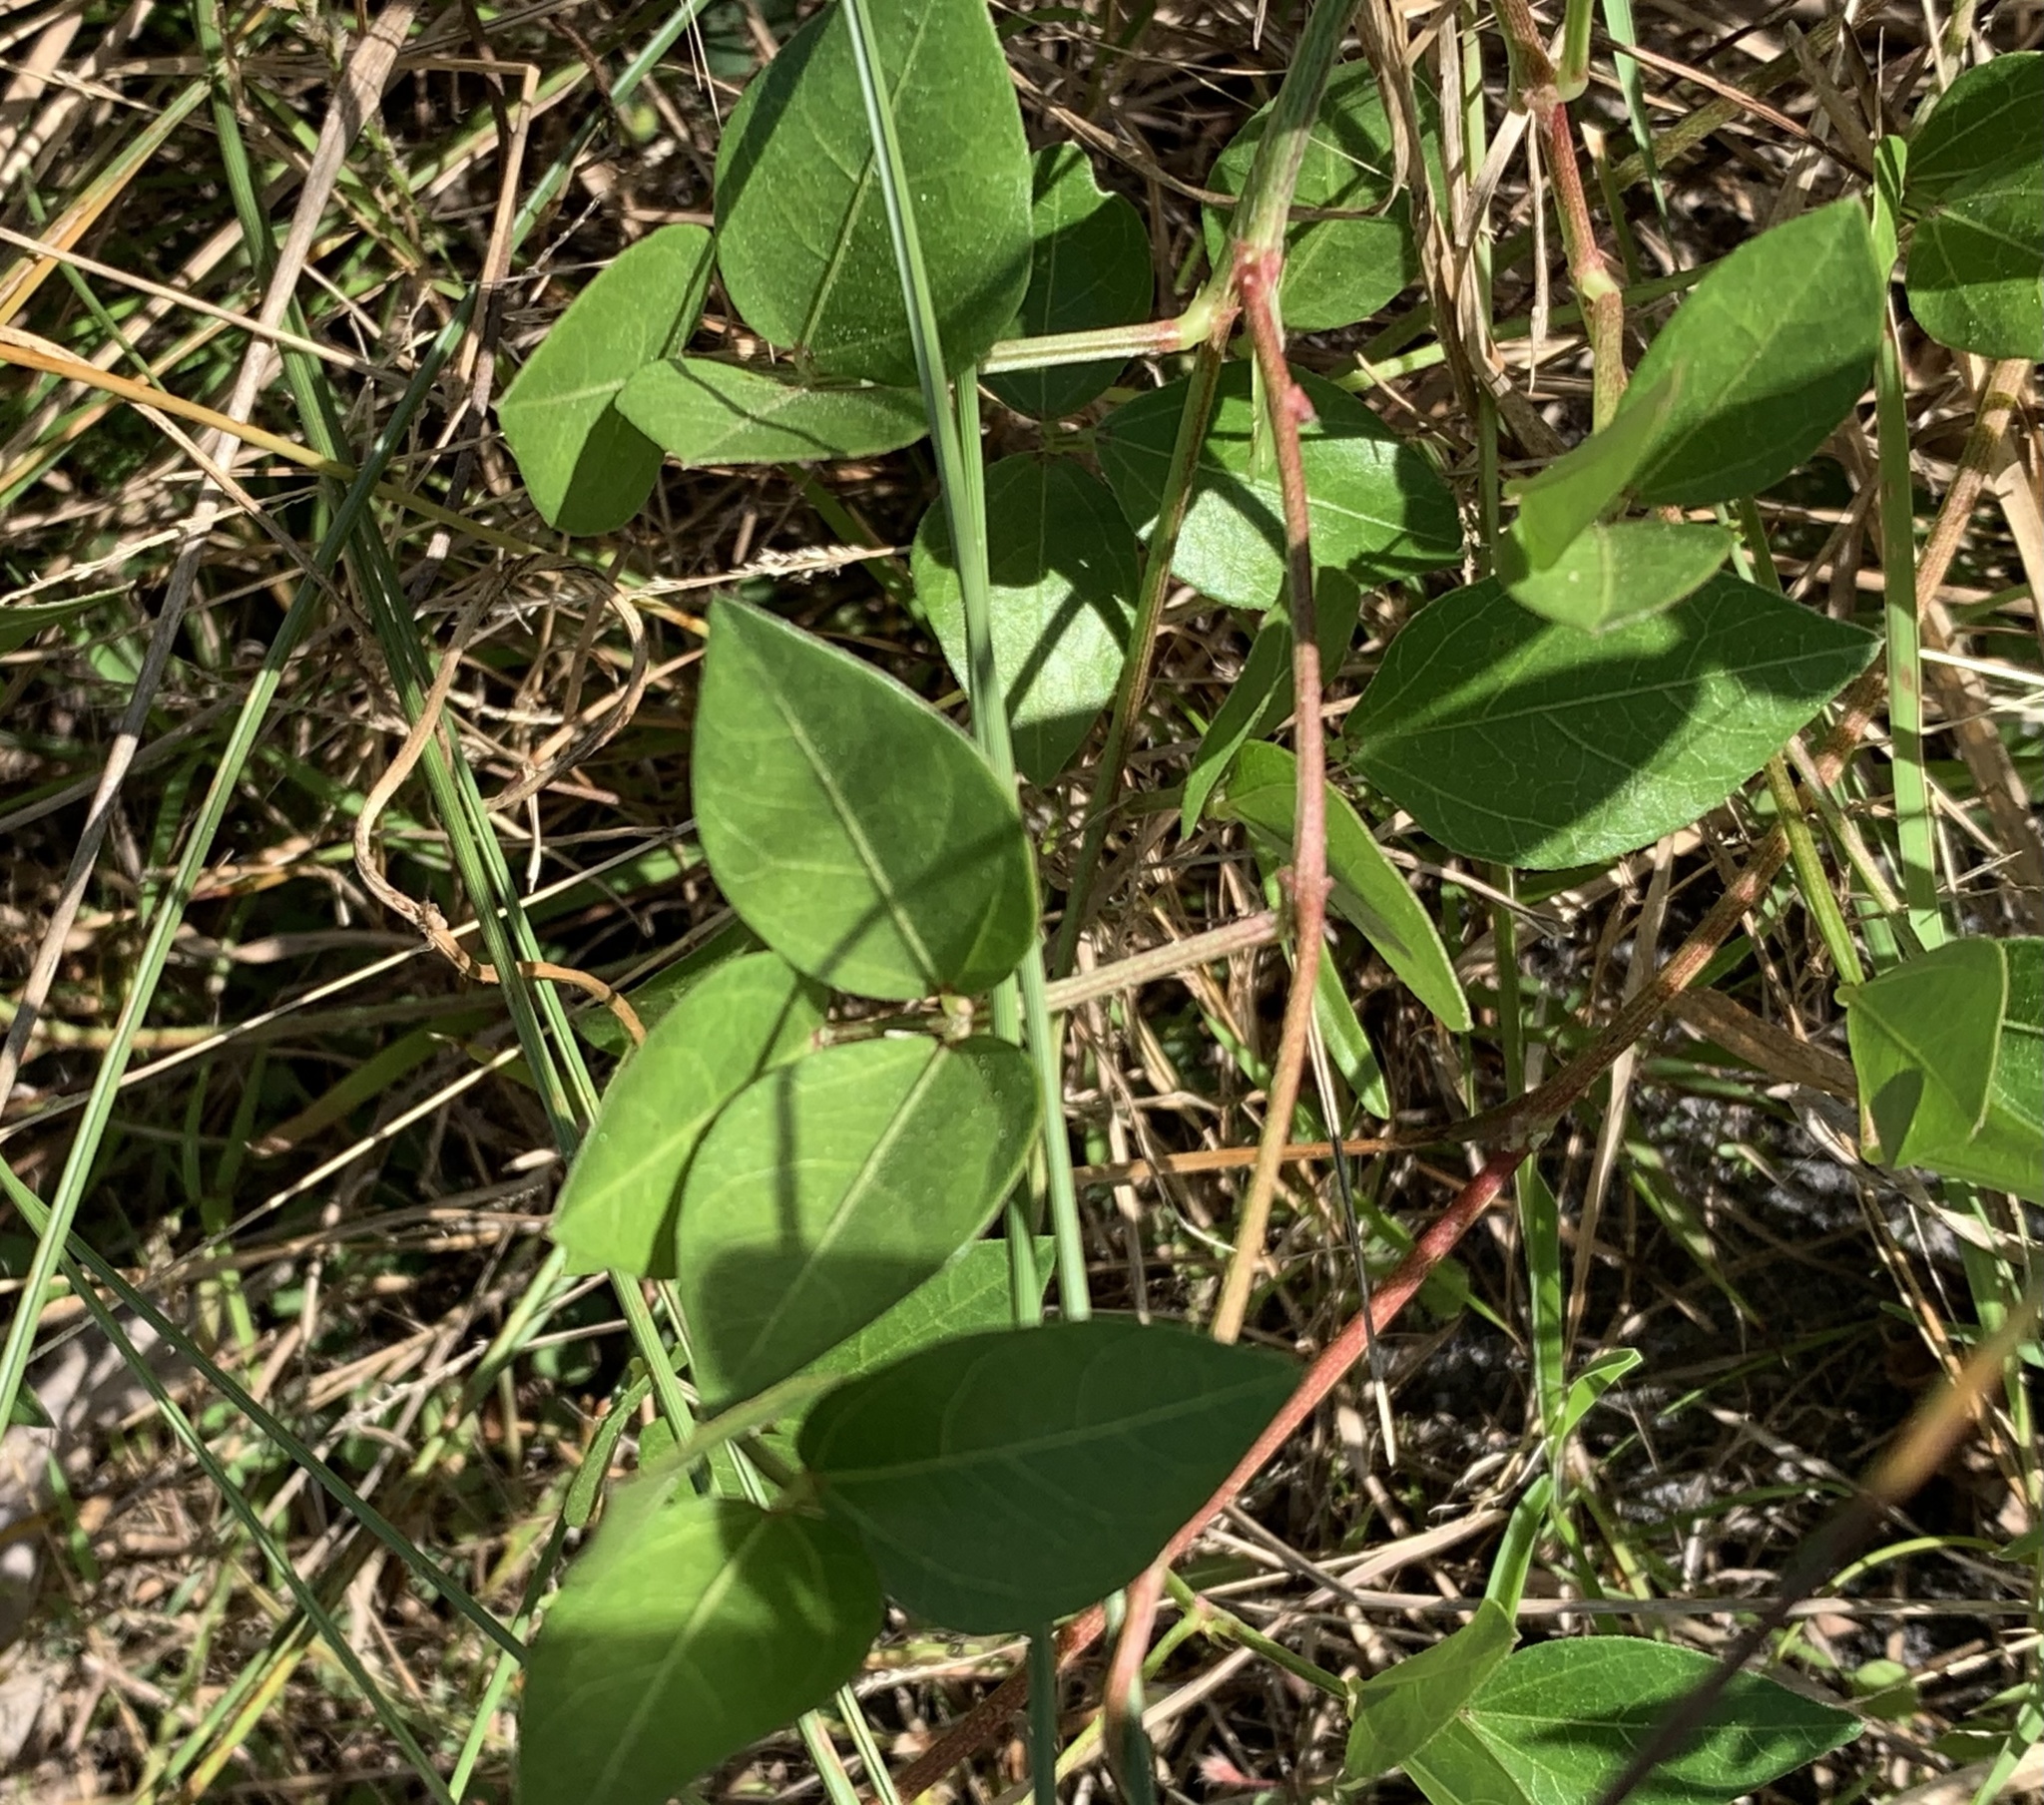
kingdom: Plantae
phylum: Tracheophyta
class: Magnoliopsida
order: Fabales
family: Fabaceae
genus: Vigna
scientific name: Vigna luteola
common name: Hairypod cowpea
